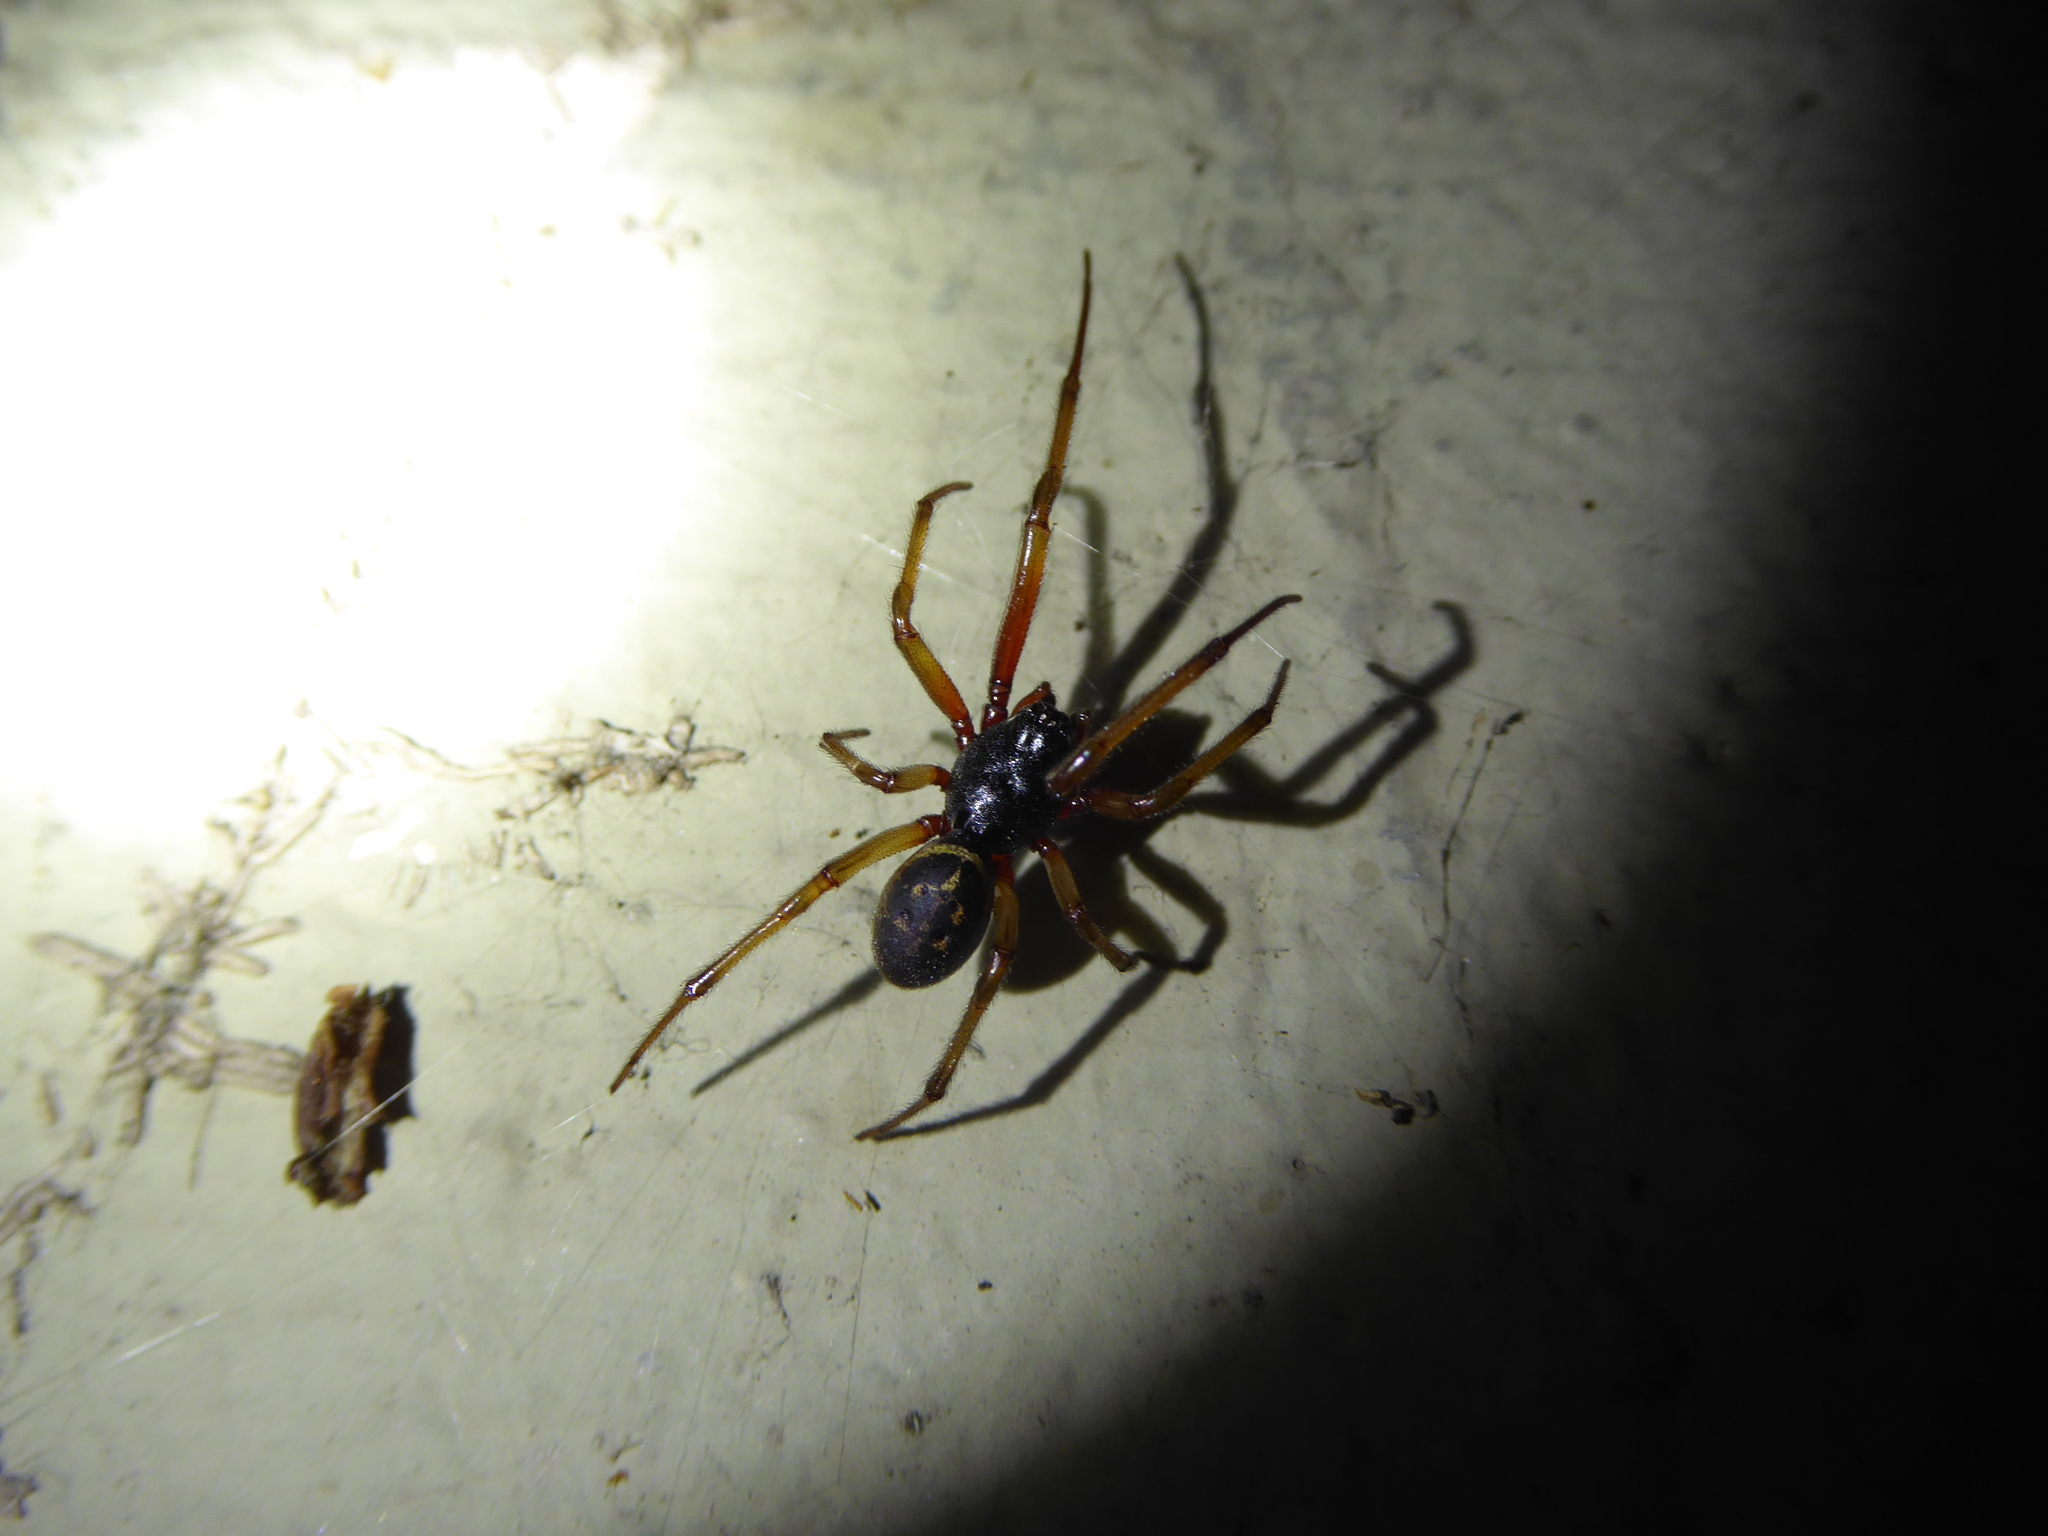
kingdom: Animalia
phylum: Arthropoda
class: Arachnida
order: Araneae
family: Theridiidae
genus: Steatoda
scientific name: Steatoda nobilis
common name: Cobweb weaver
